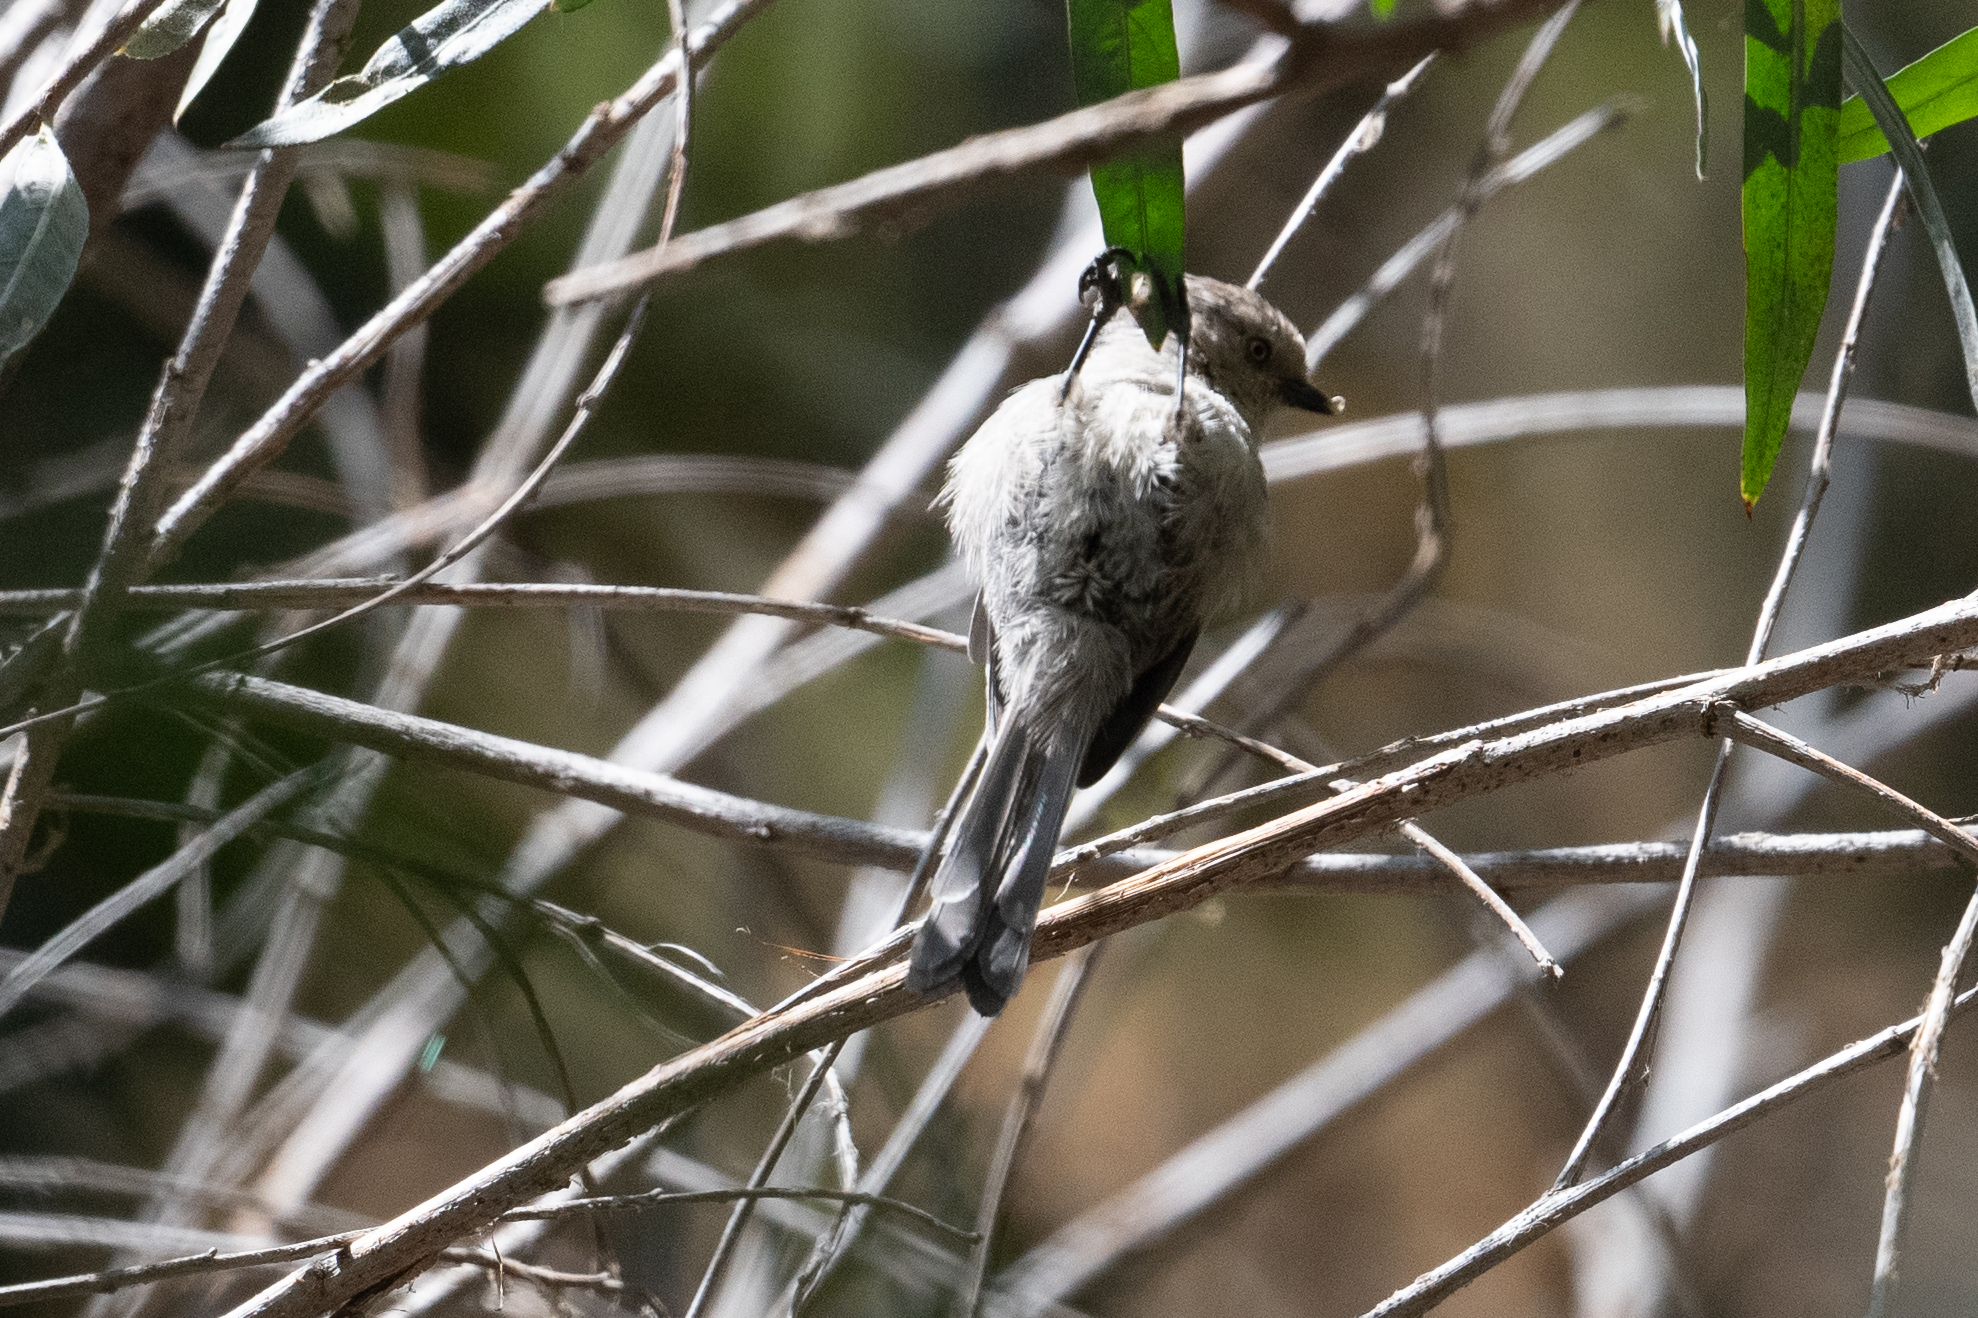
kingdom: Animalia
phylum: Chordata
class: Aves
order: Passeriformes
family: Aegithalidae
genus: Psaltriparus
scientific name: Psaltriparus minimus
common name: American bushtit
